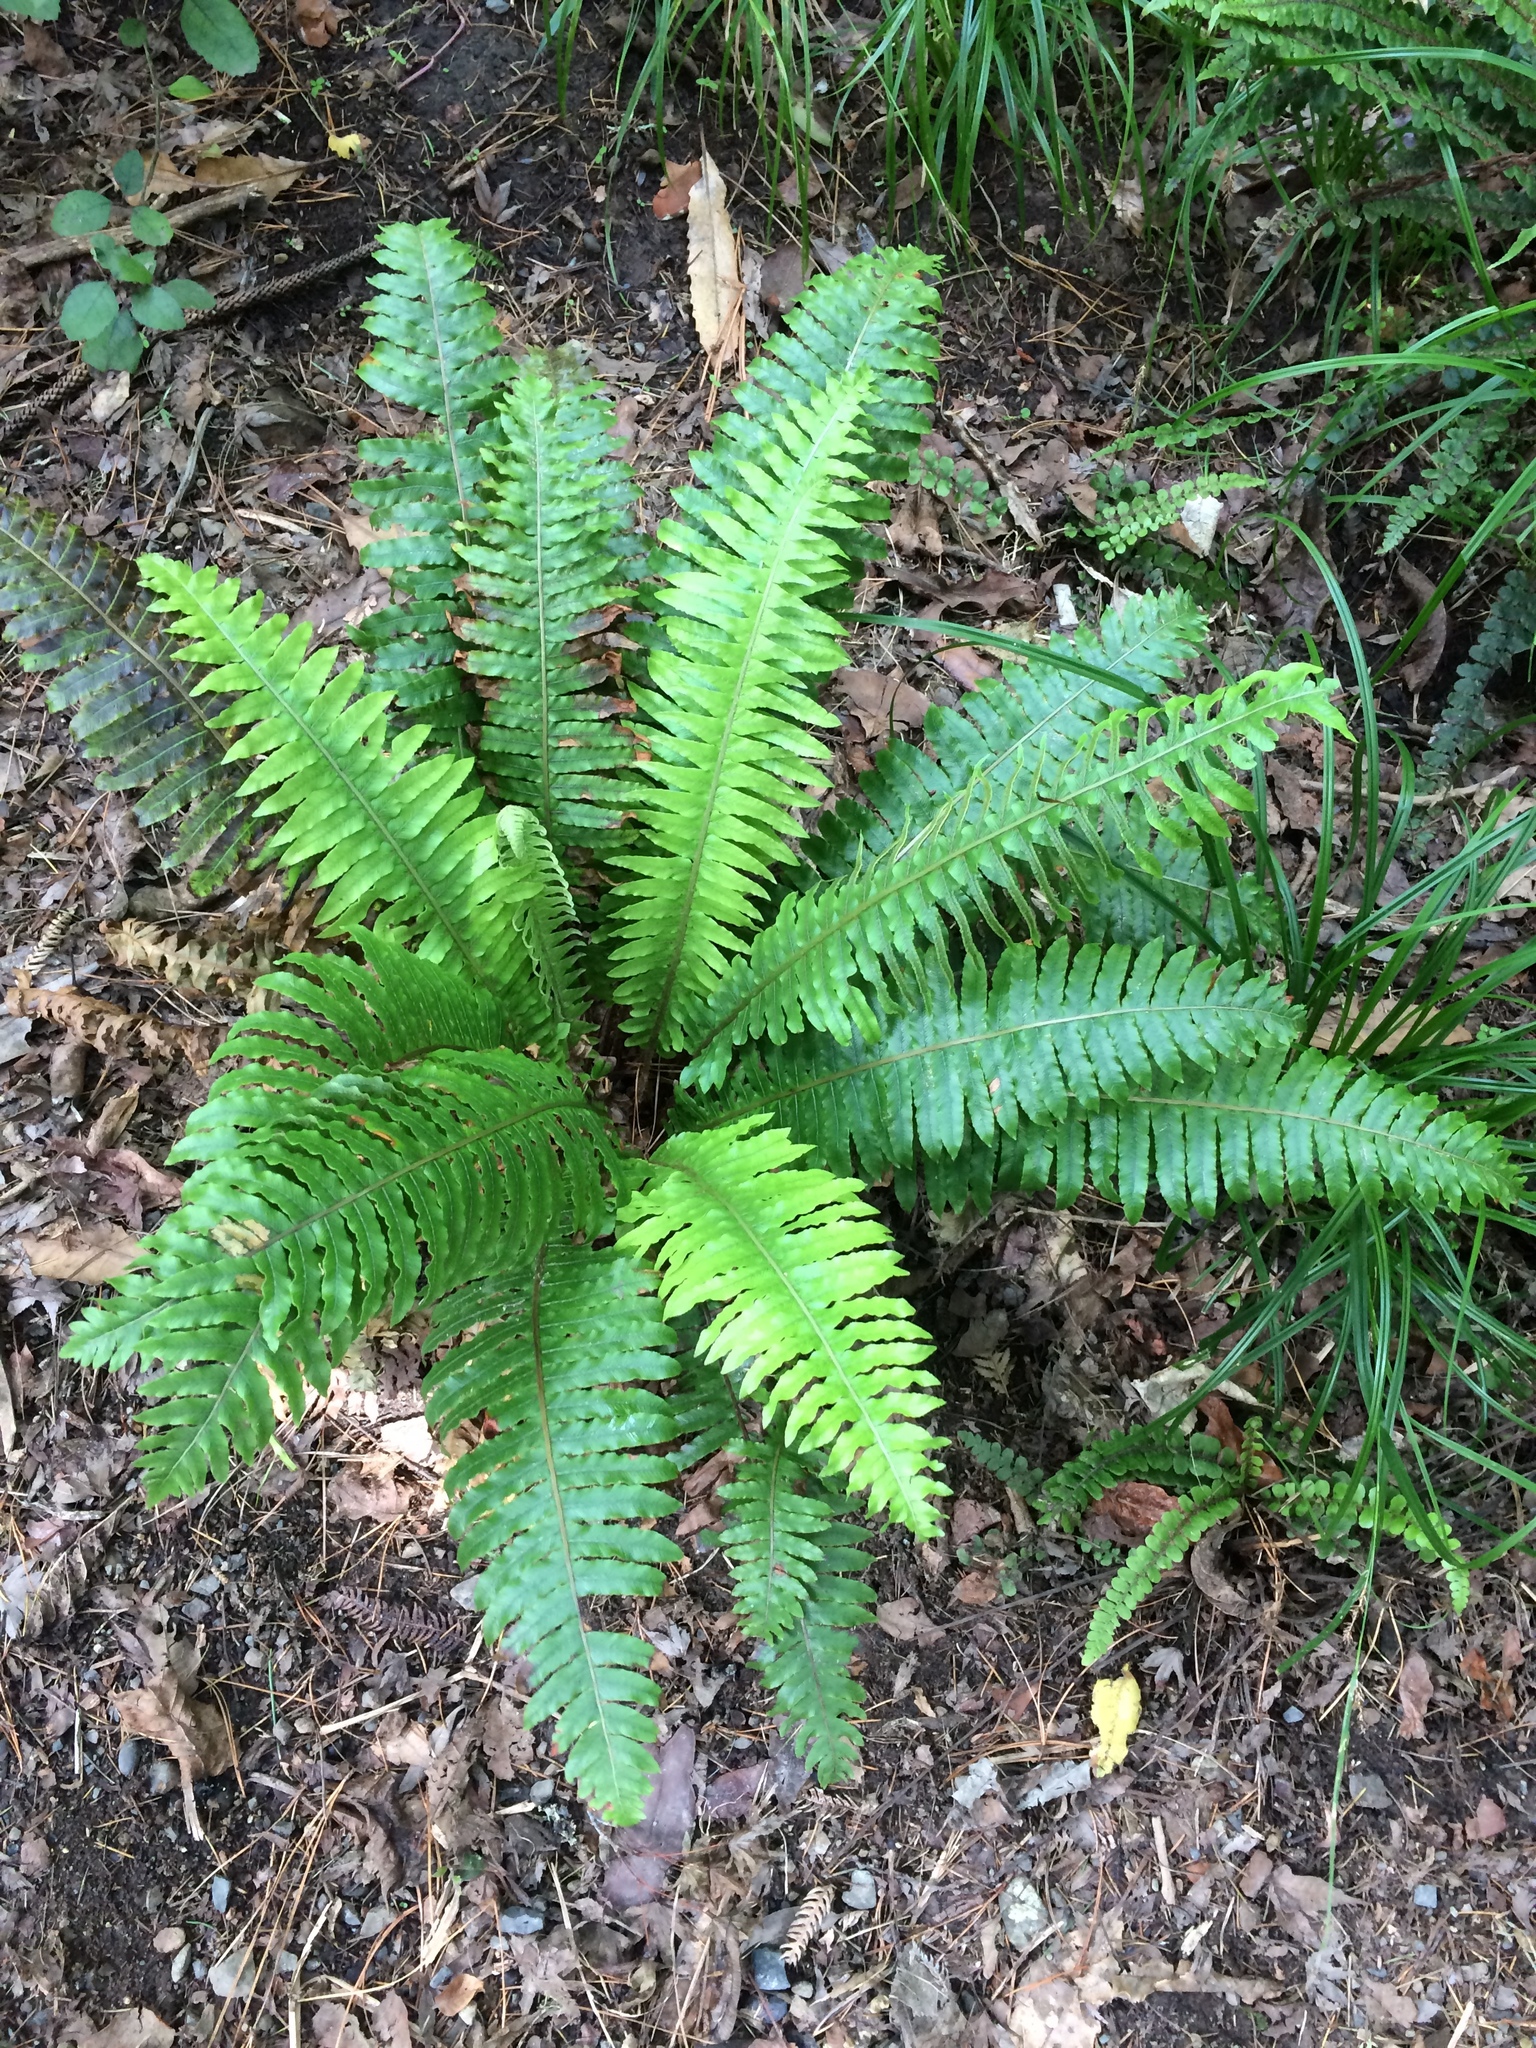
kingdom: Plantae
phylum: Tracheophyta
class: Polypodiopsida
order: Polypodiales
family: Blechnaceae
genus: Lomaria
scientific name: Lomaria discolor
